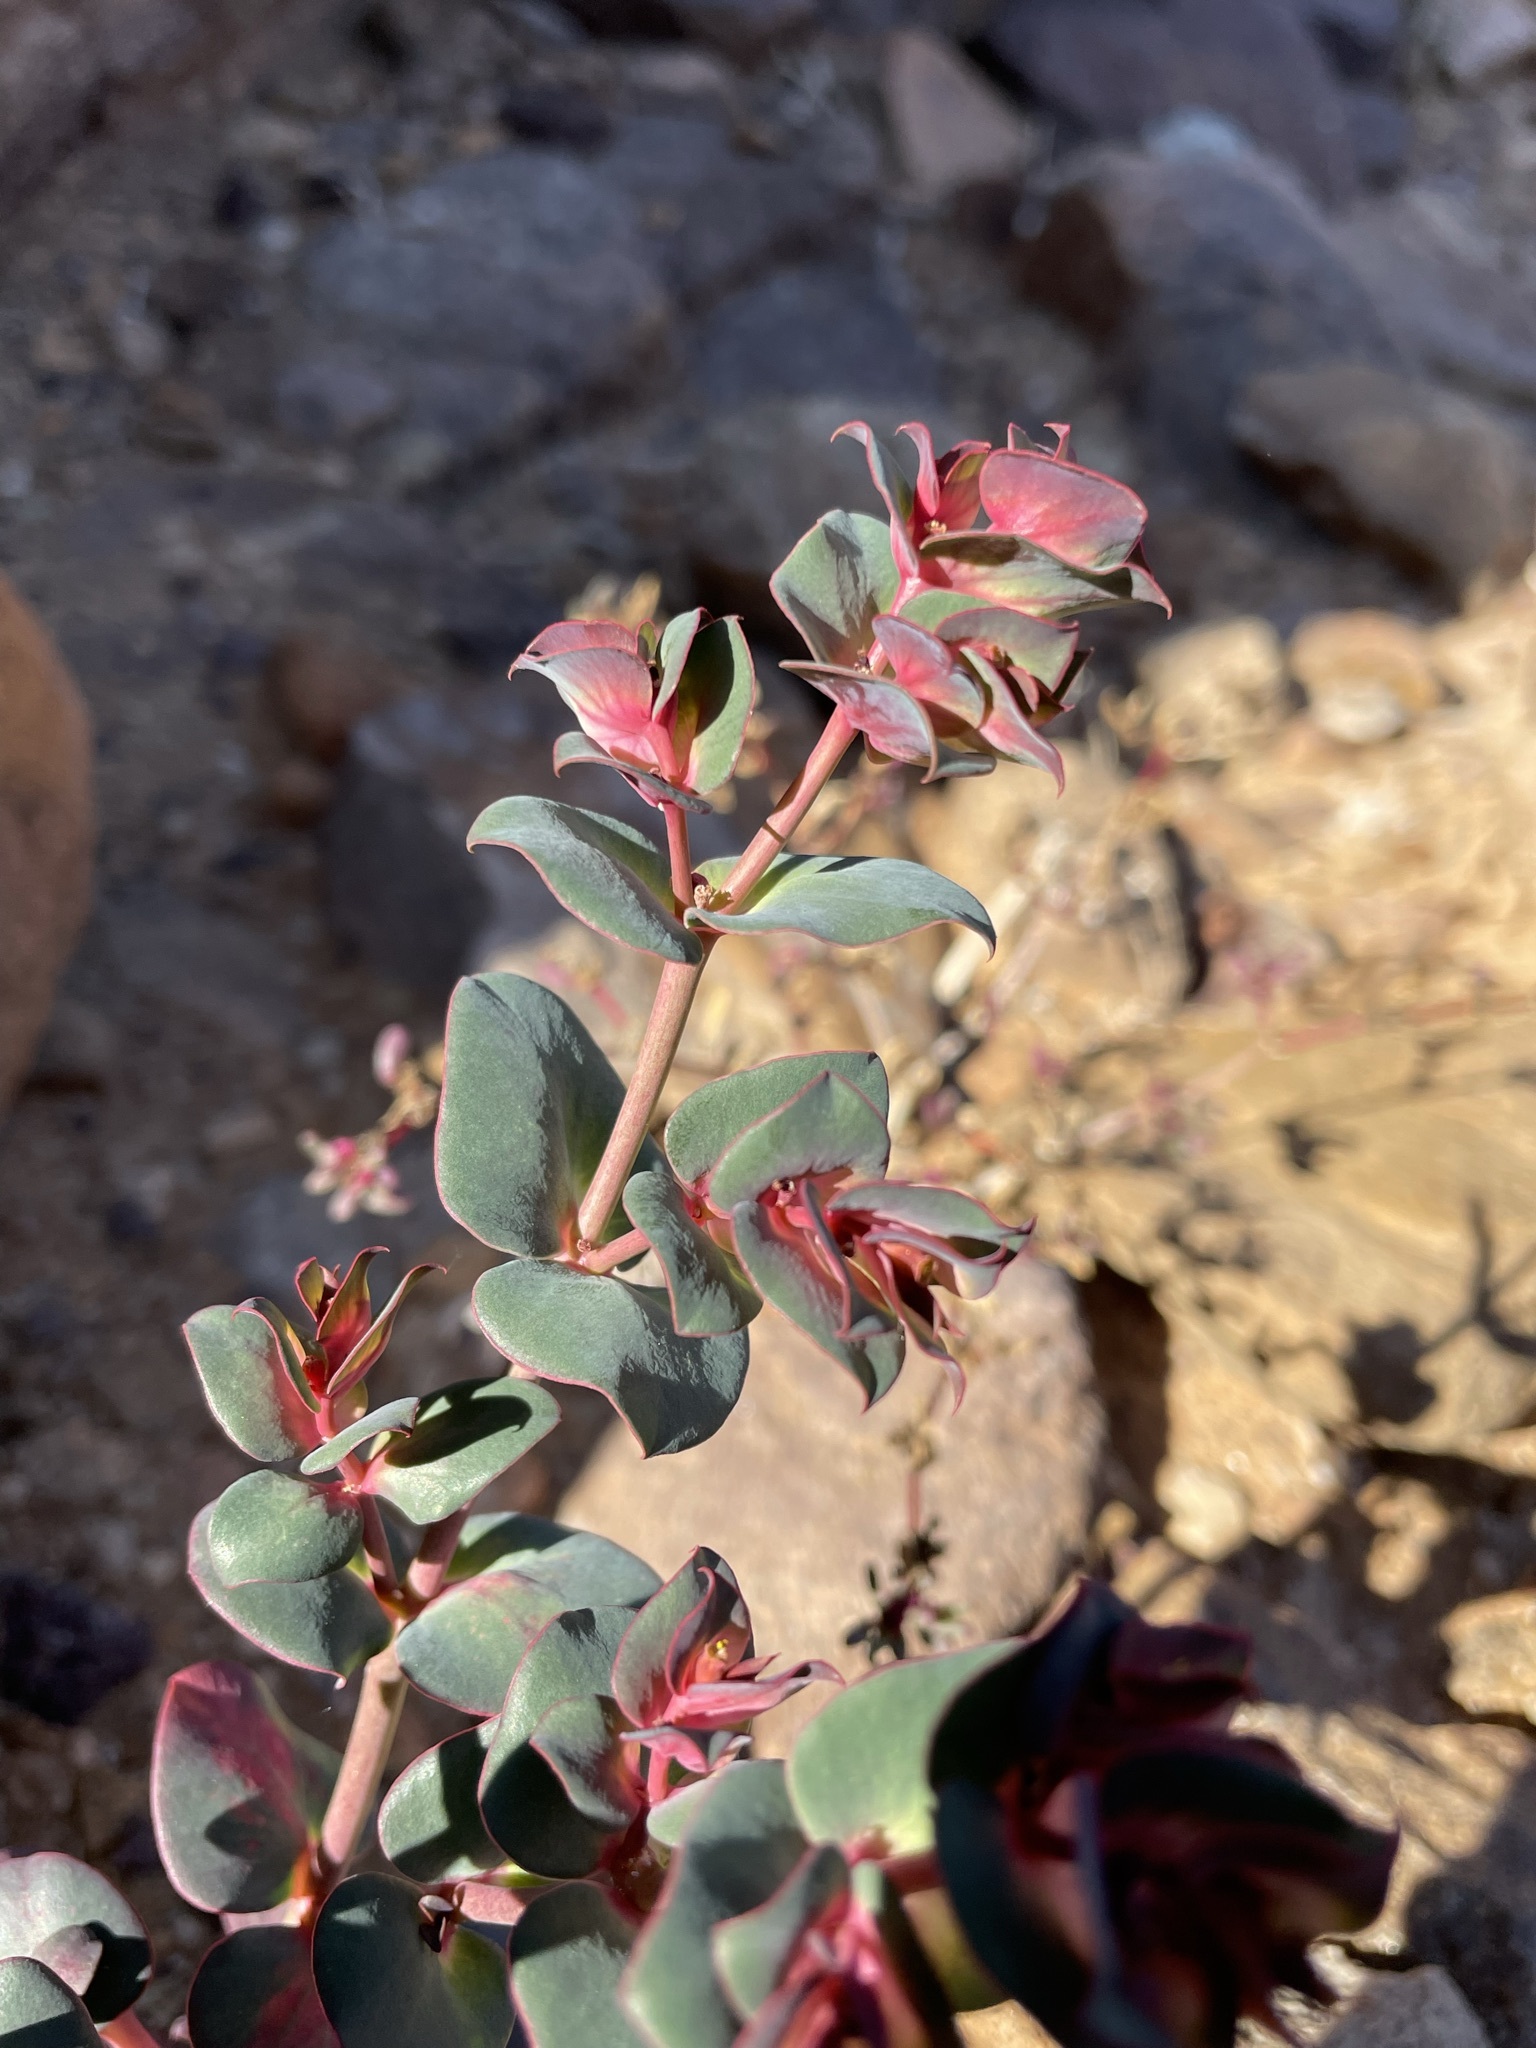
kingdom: Plantae
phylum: Tracheophyta
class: Magnoliopsida
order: Malpighiales
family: Euphorbiaceae
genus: Euphorbia
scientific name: Euphorbia phylloclada
